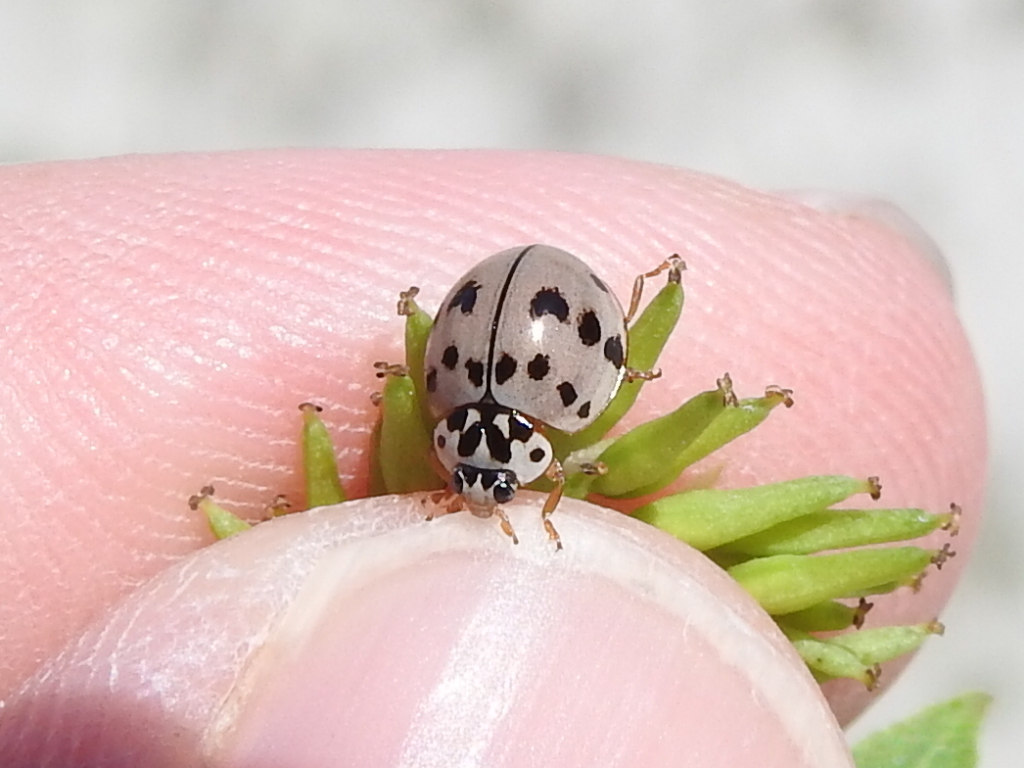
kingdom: Animalia
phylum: Arthropoda
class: Insecta
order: Coleoptera
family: Coccinellidae
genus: Olla
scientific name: Olla v-nigrum
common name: Ashy gray lady beetle
